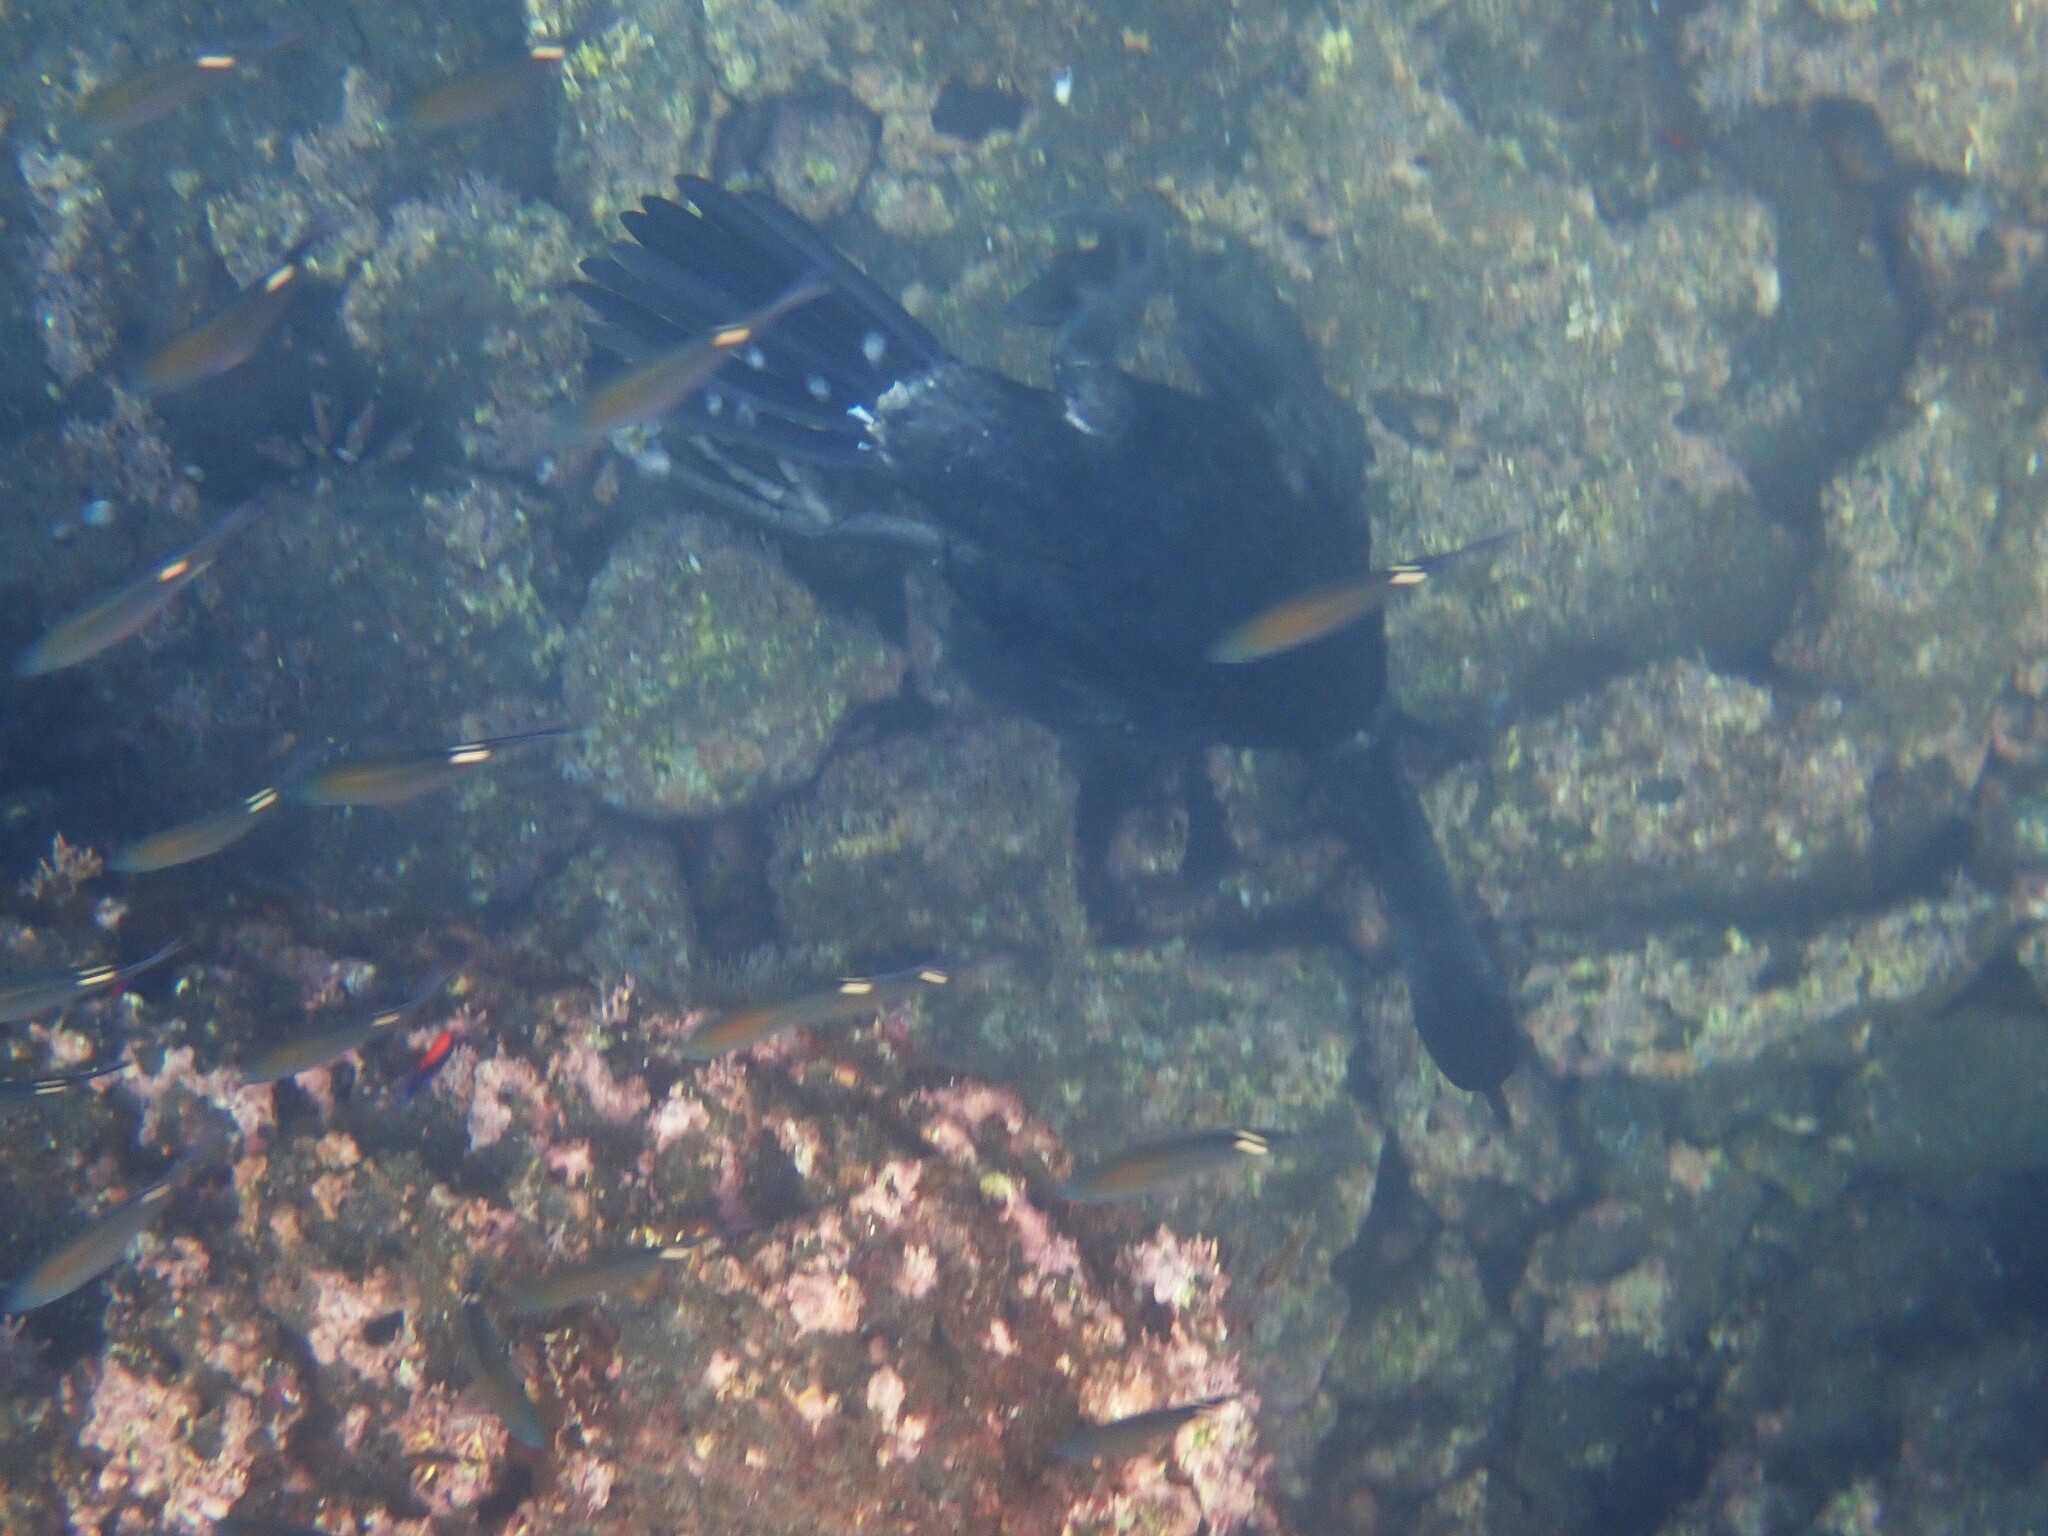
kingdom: Animalia
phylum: Chordata
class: Aves
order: Suliformes
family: Phalacrocoracidae
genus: Phalacrocorax
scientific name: Phalacrocorax harrisi
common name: Flightless cormorant
